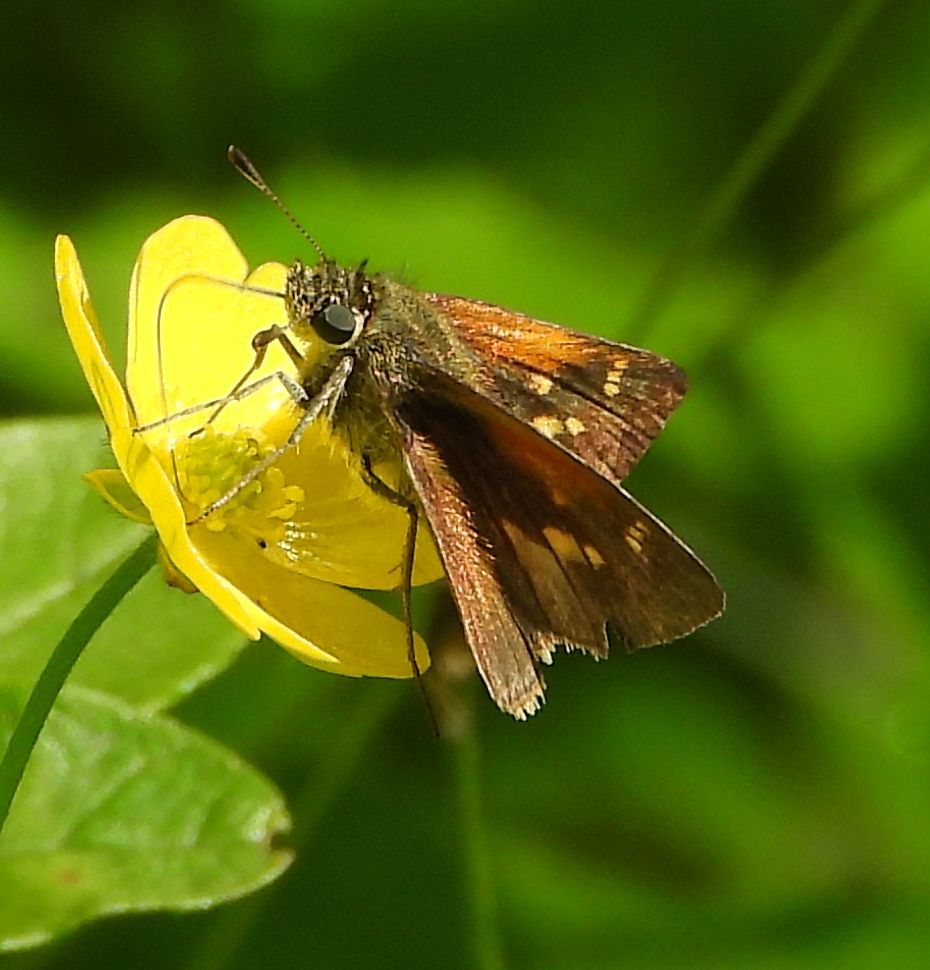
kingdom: Animalia
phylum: Arthropoda
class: Insecta
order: Lepidoptera
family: Hesperiidae
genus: Polites
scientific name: Polites themistocles
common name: Tawny-edged skipper
